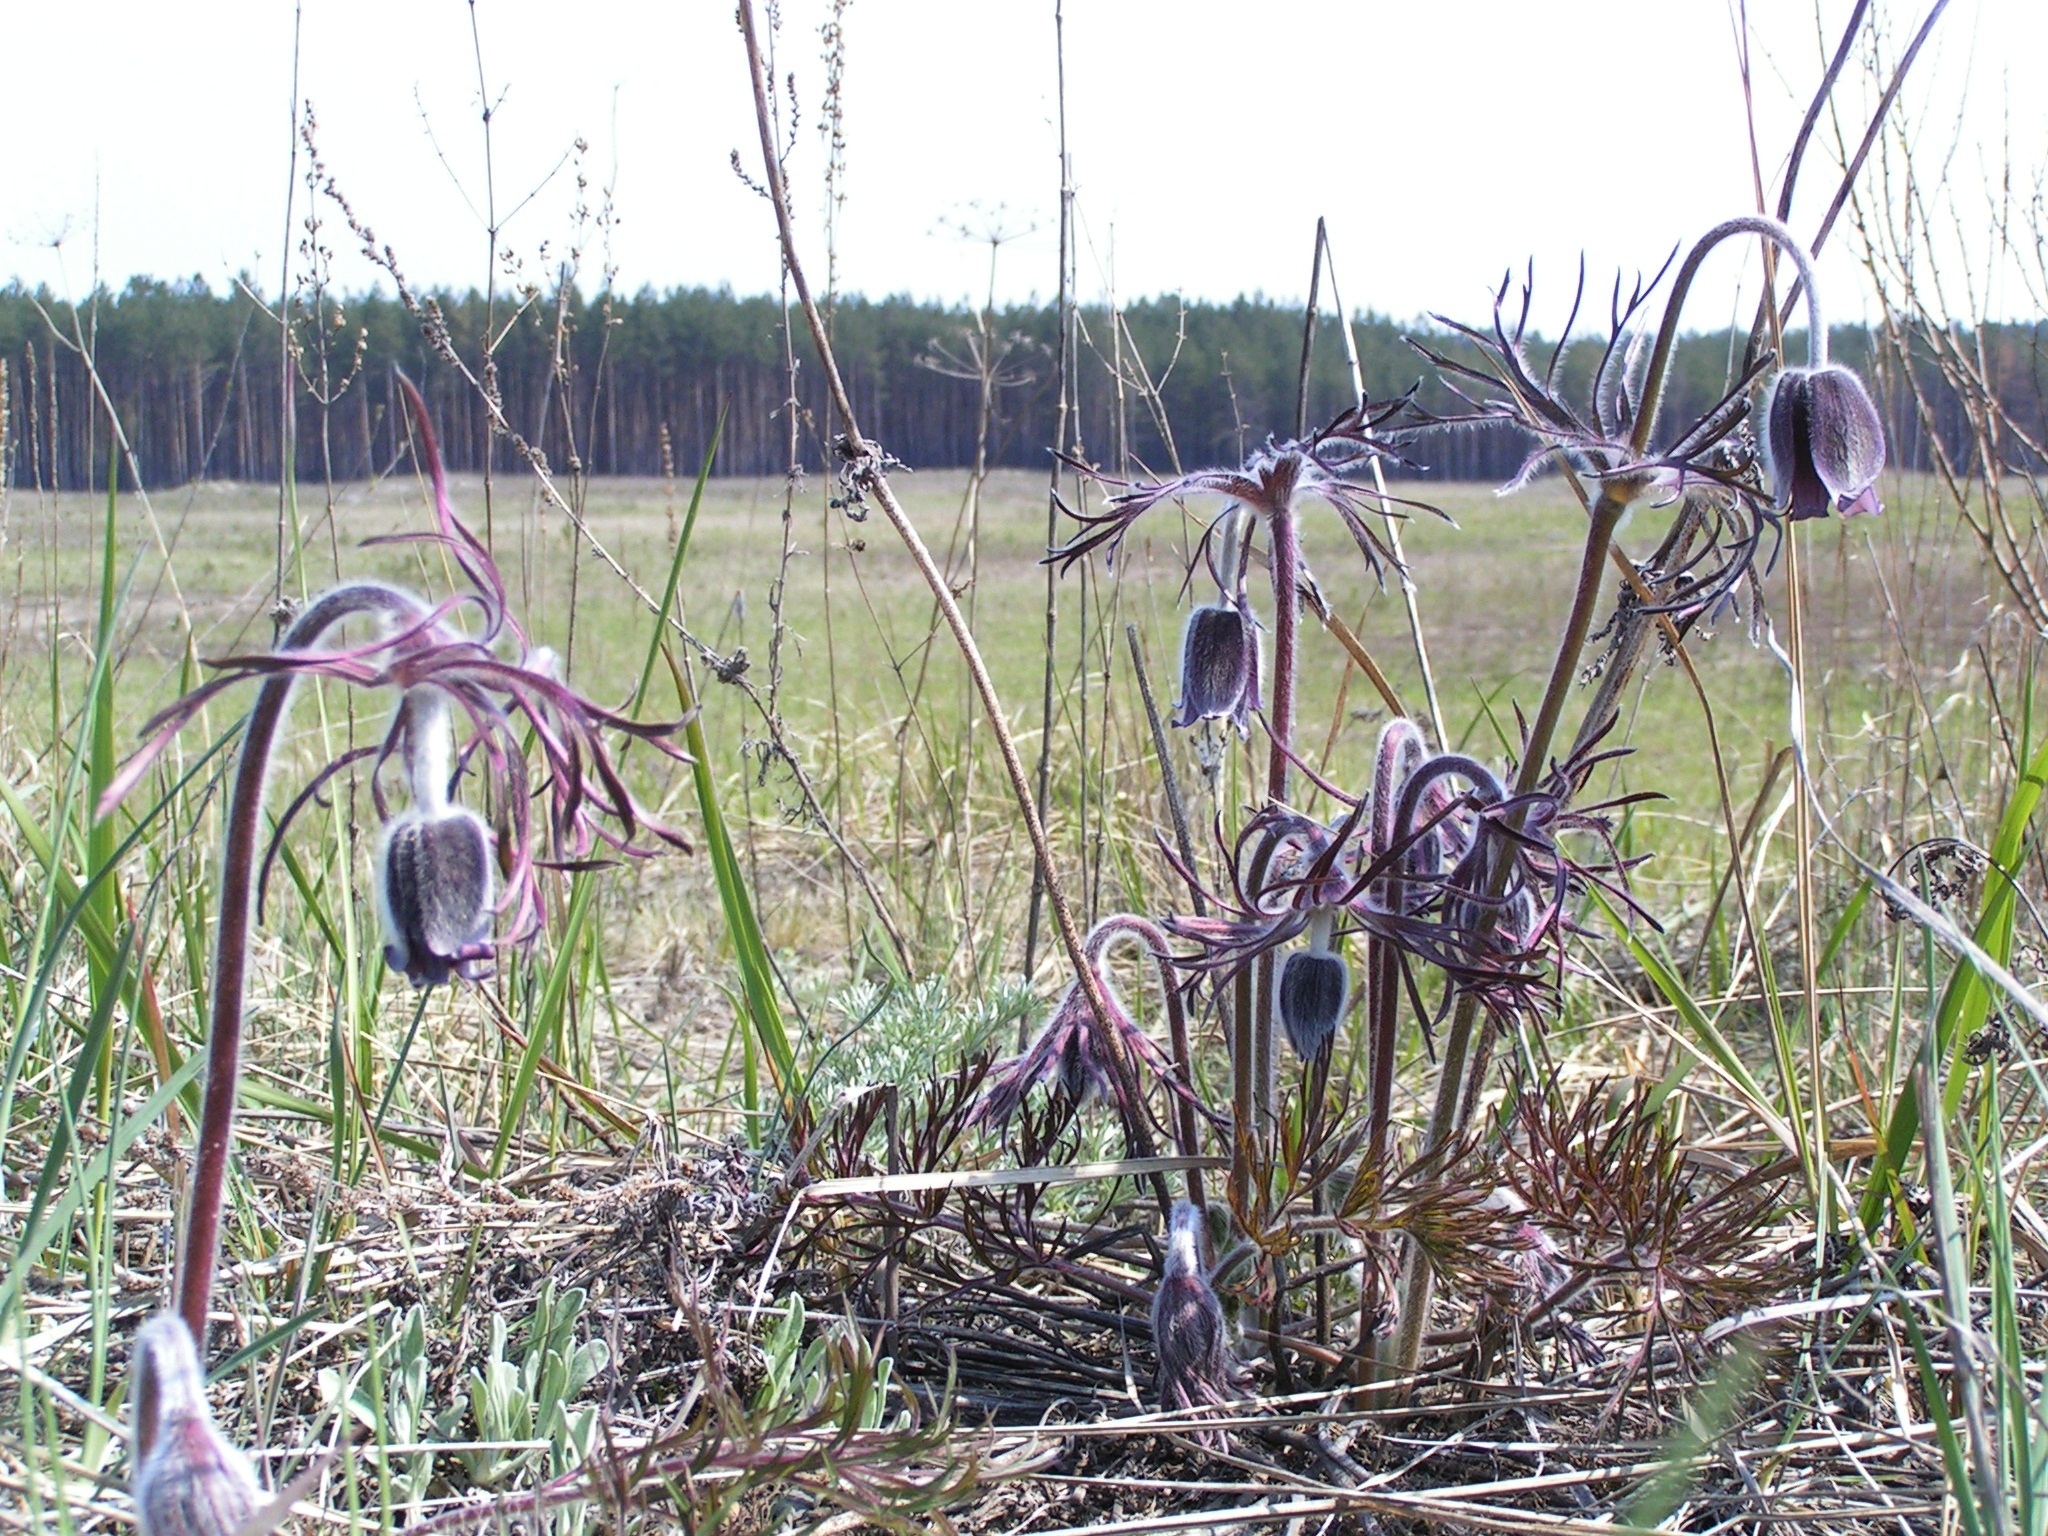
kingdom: Plantae
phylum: Tracheophyta
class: Magnoliopsida
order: Ranunculales
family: Ranunculaceae
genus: Pulsatilla
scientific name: Pulsatilla pratensis
